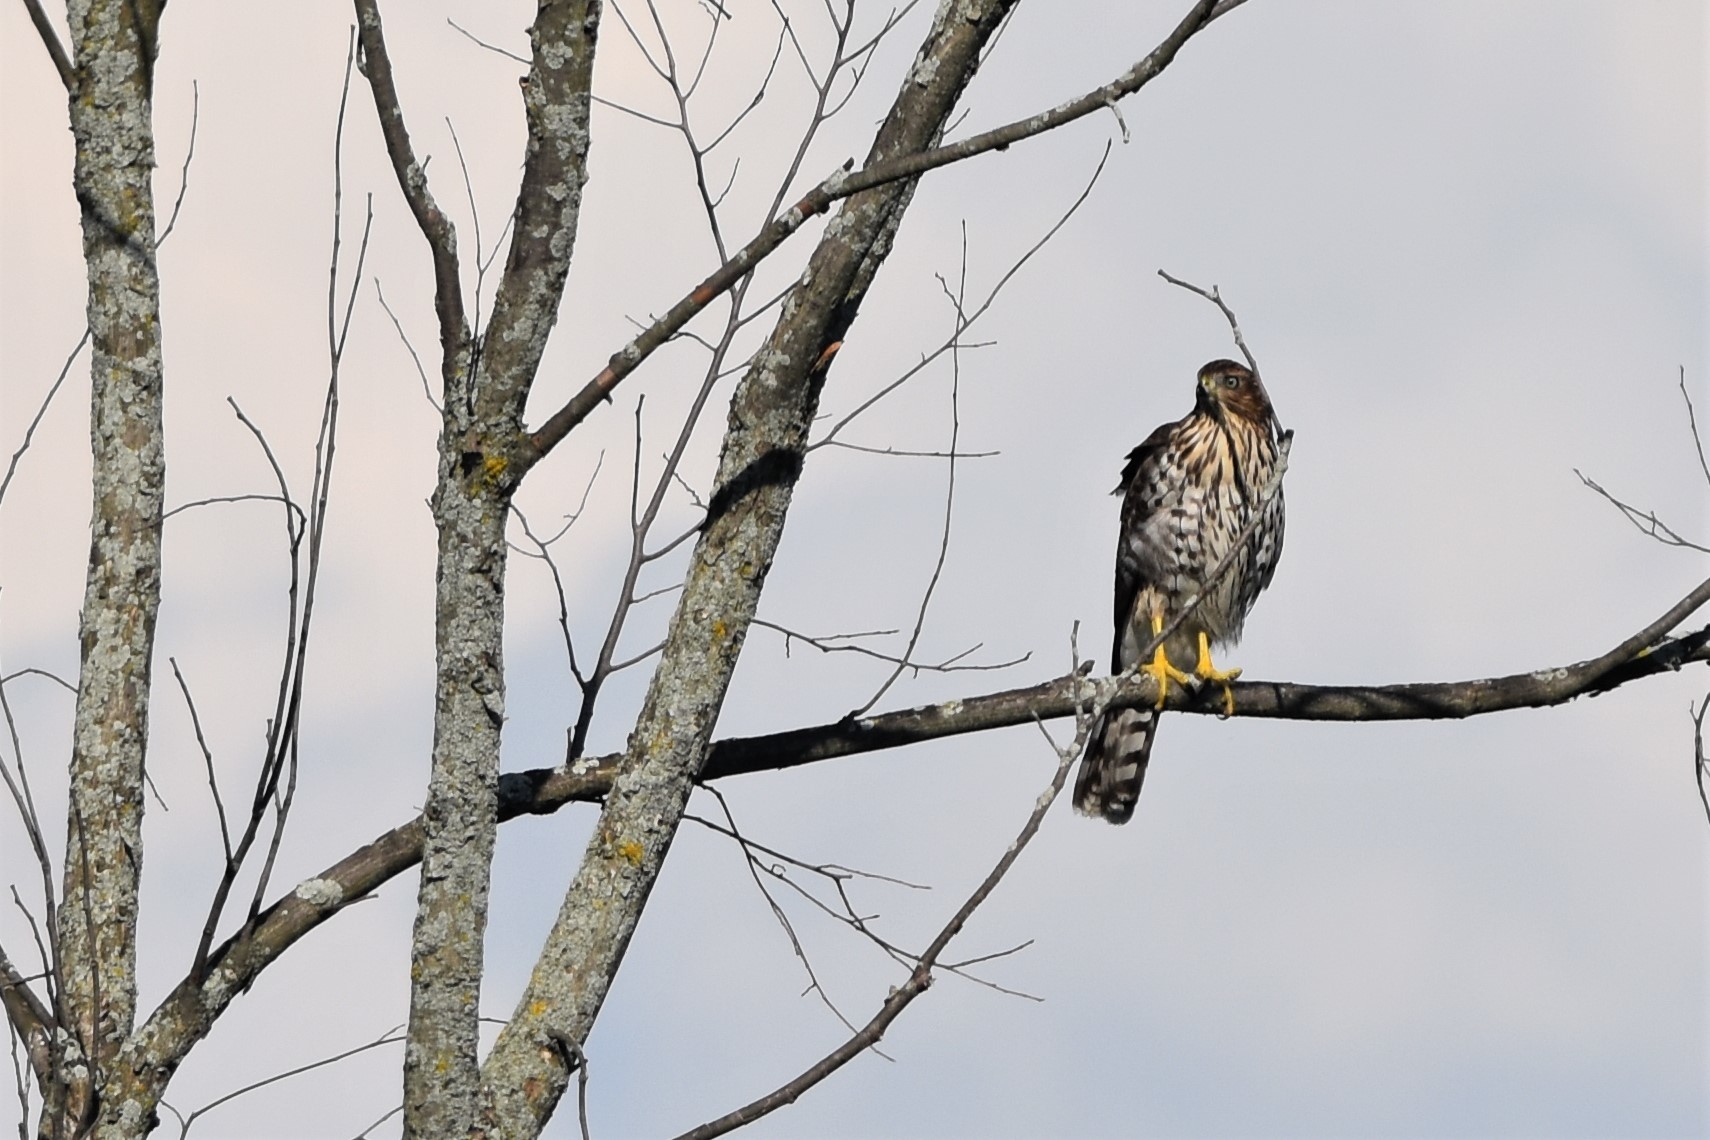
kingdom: Animalia
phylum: Chordata
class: Aves
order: Accipitriformes
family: Accipitridae
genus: Accipiter
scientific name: Accipiter cooperii
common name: Cooper's hawk
